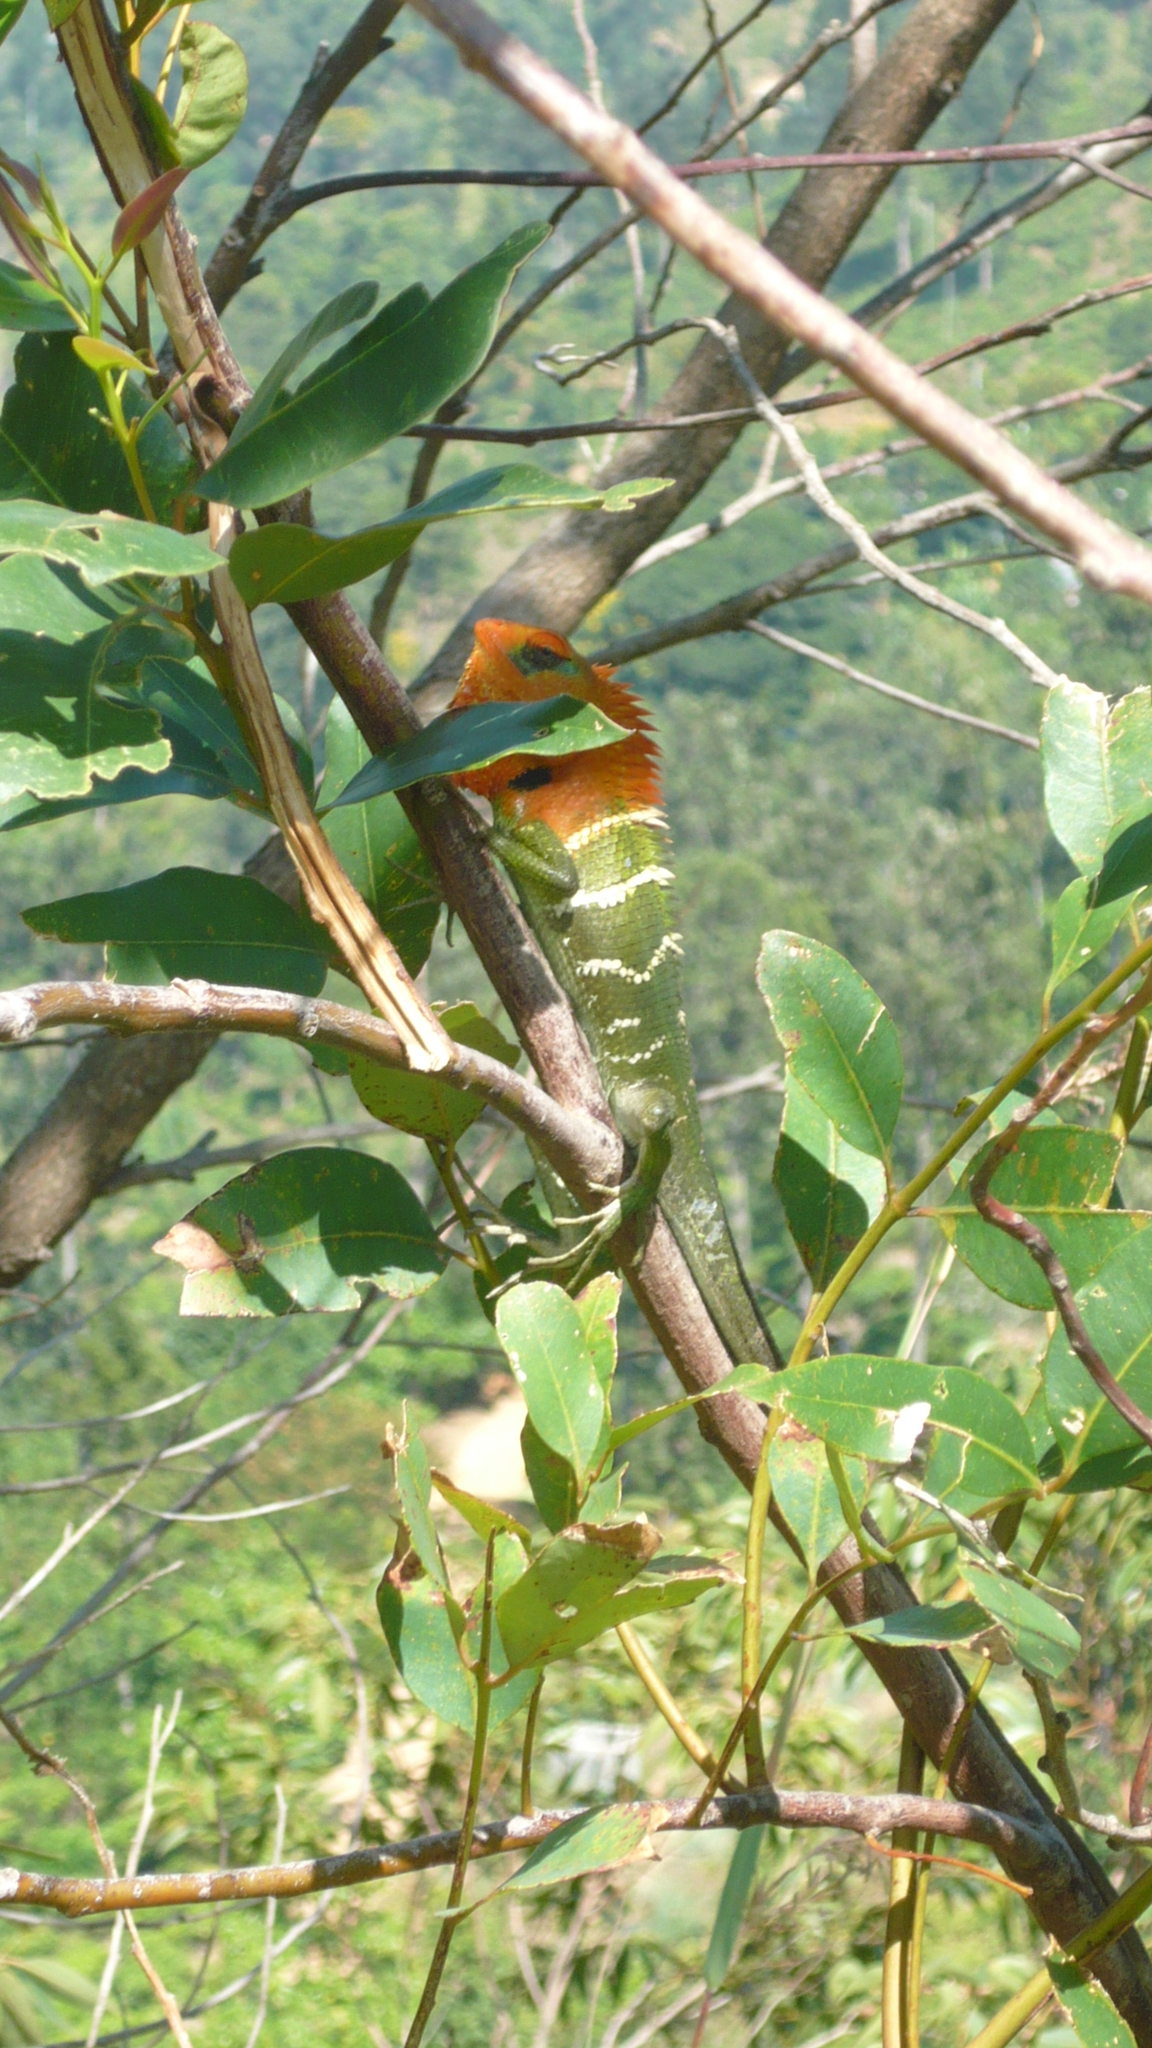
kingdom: Animalia
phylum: Chordata
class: Squamata
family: Agamidae
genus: Calotes
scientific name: Calotes calotes
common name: Common green forest lizard
